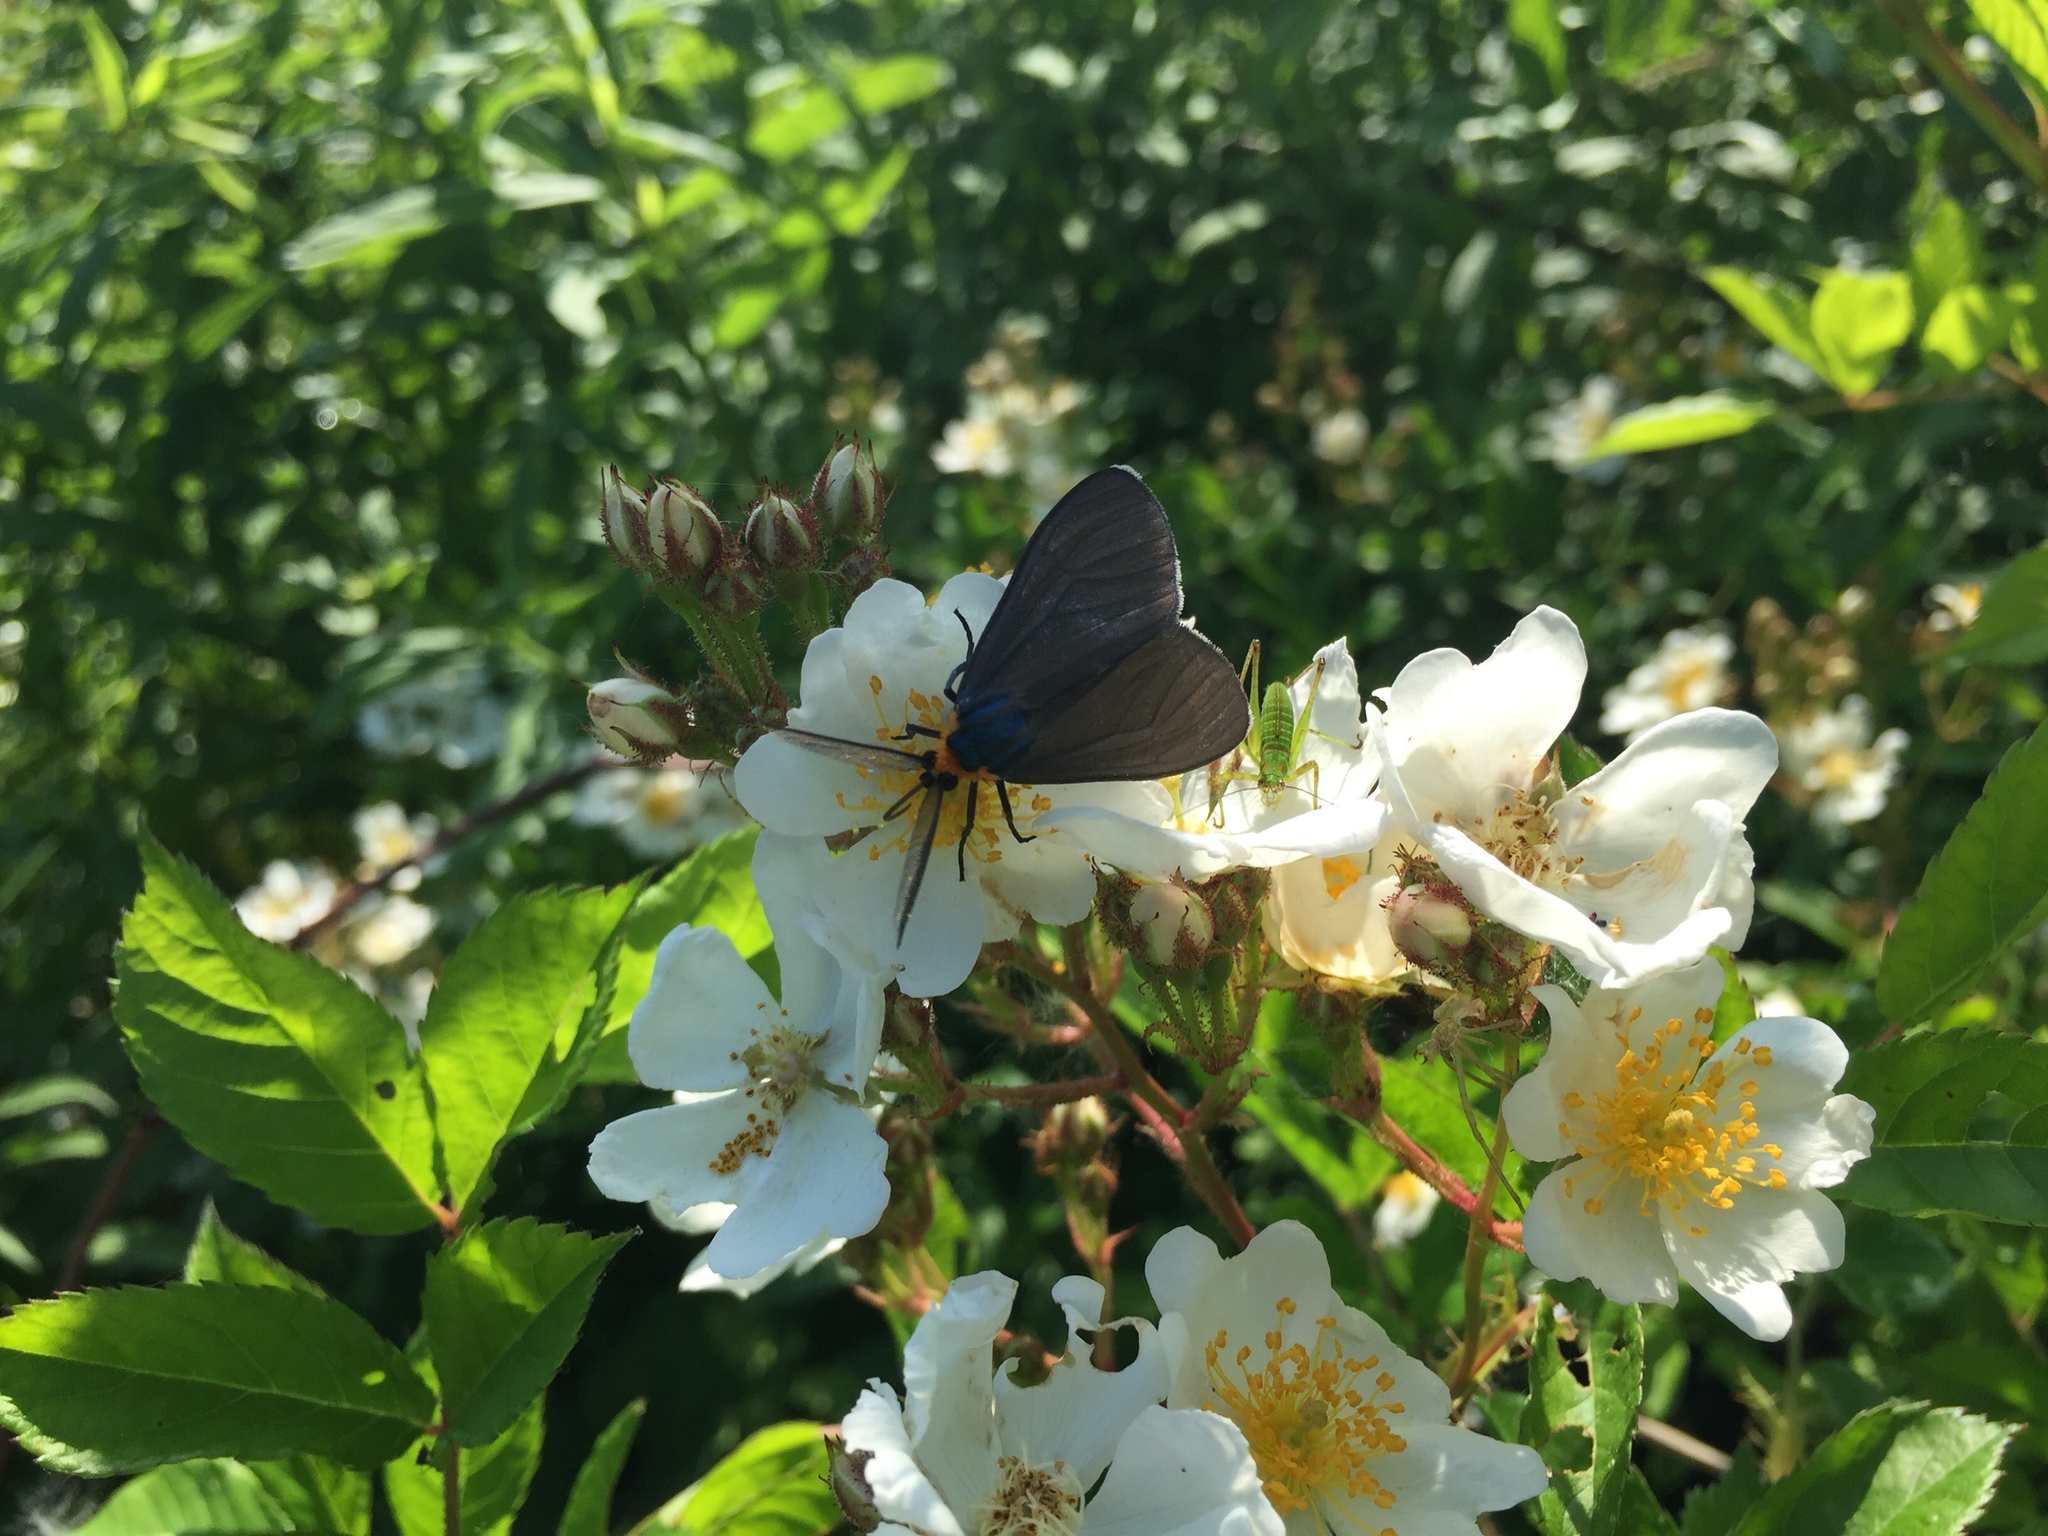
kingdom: Animalia
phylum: Arthropoda
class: Insecta
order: Lepidoptera
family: Erebidae
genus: Ctenucha
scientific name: Ctenucha virginica
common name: Virginia ctenucha moth
